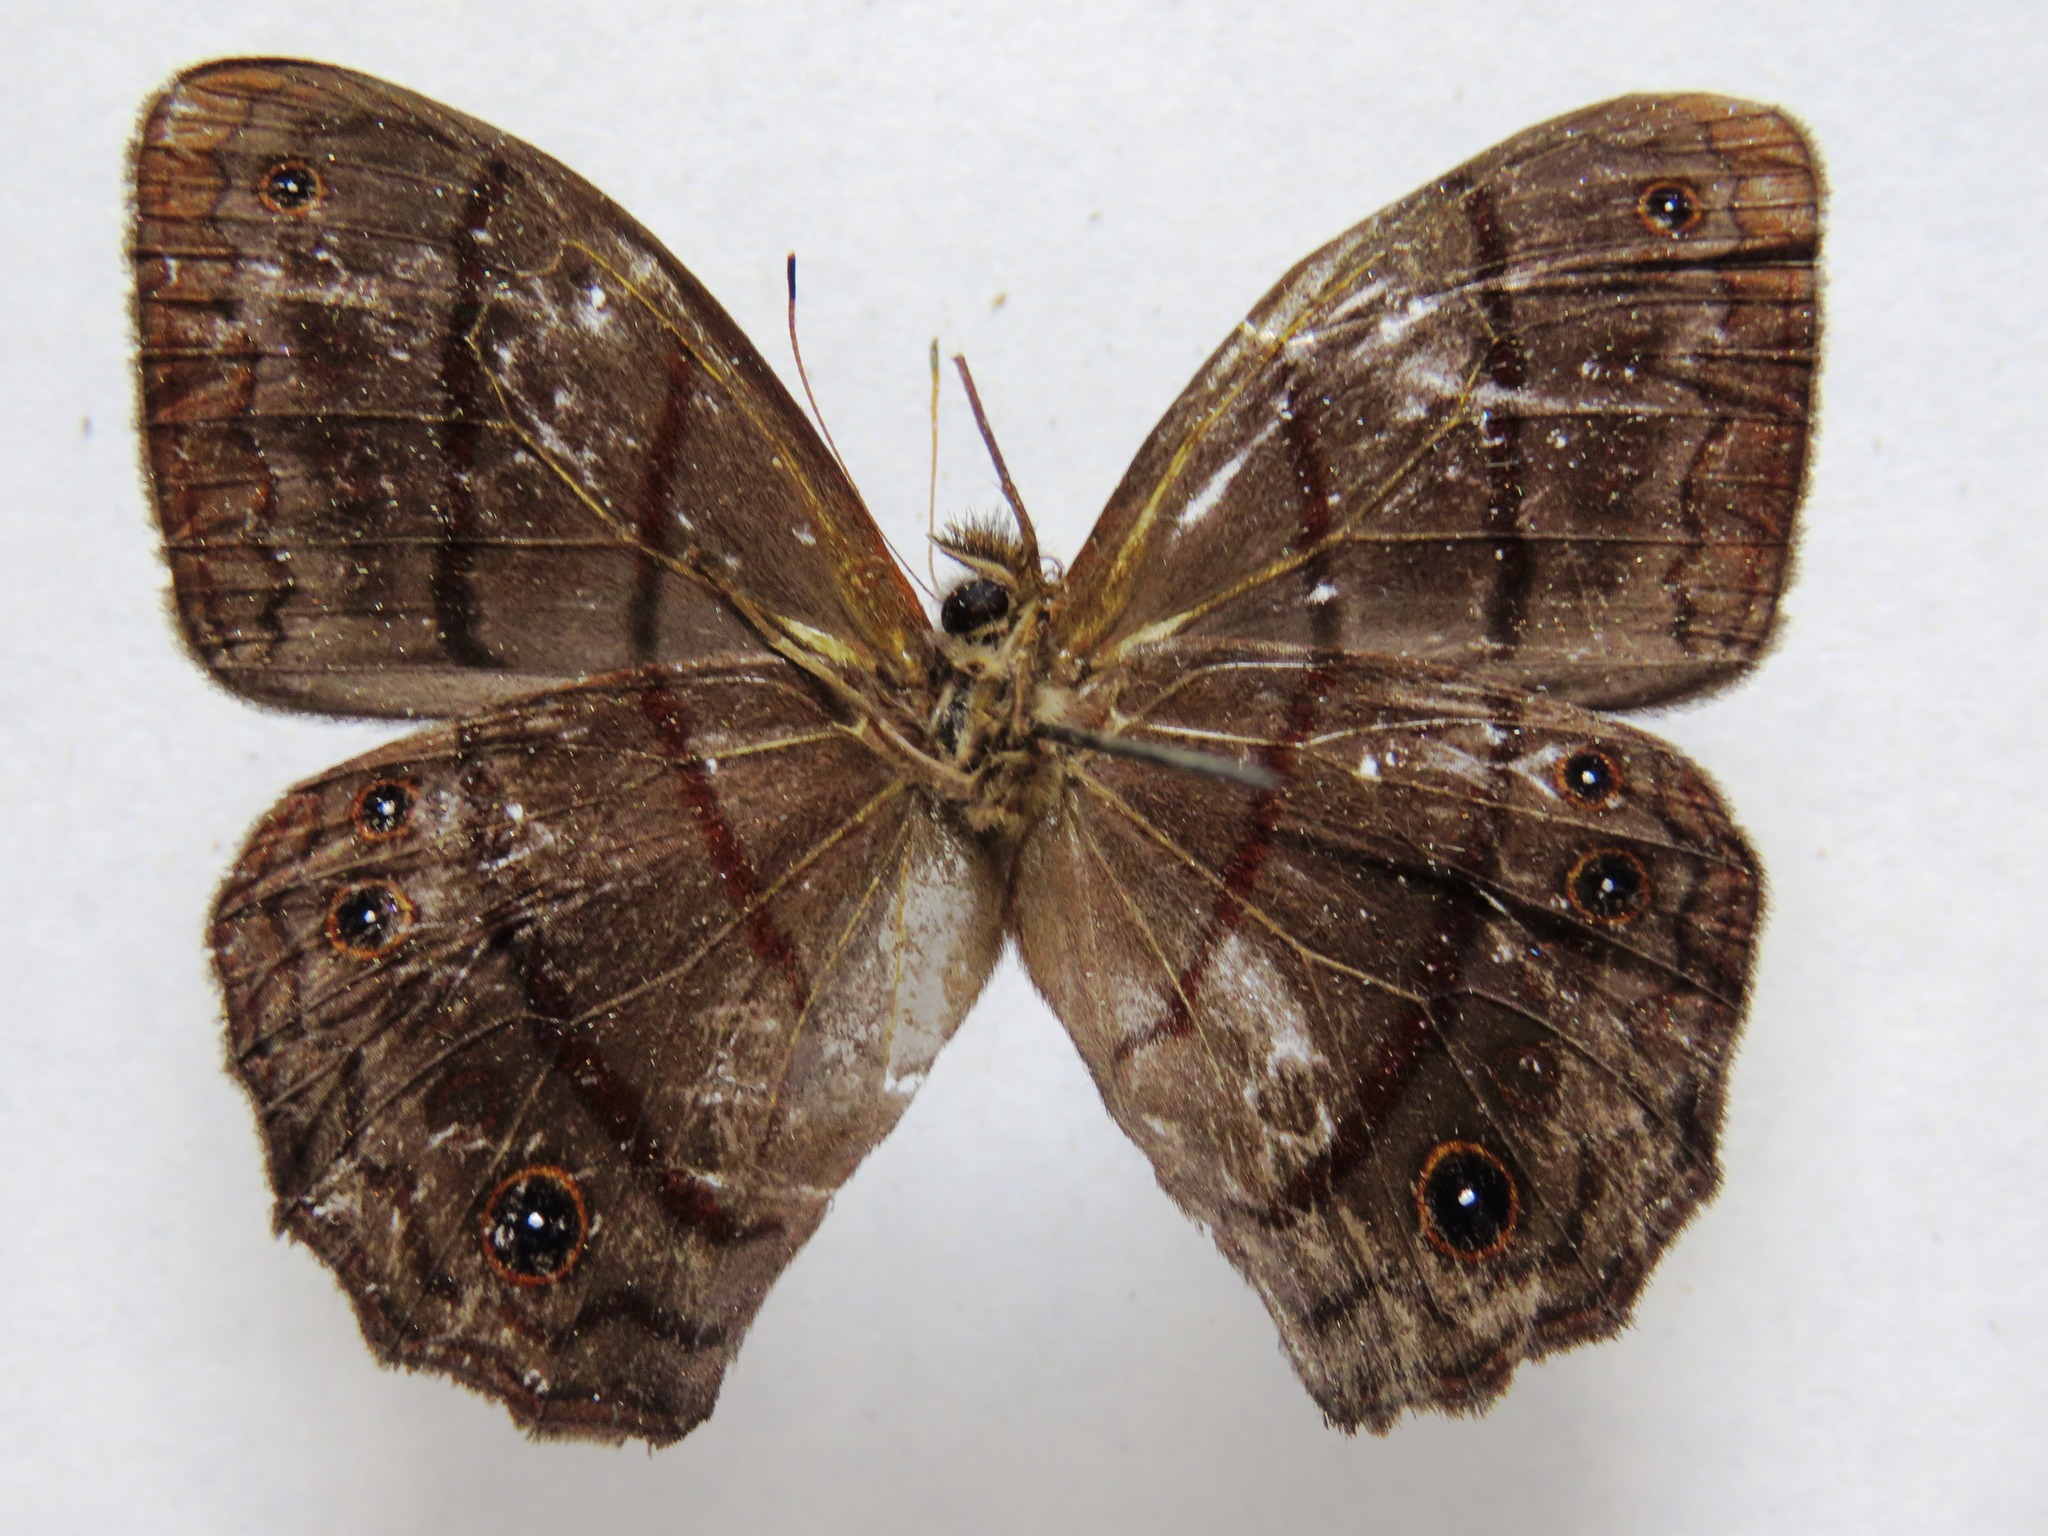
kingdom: Animalia
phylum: Arthropoda
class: Insecta
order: Lepidoptera
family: Nymphalidae
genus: Satyrotaygetis
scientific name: Satyrotaygetis satyrina
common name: Wide-bordered satyr
